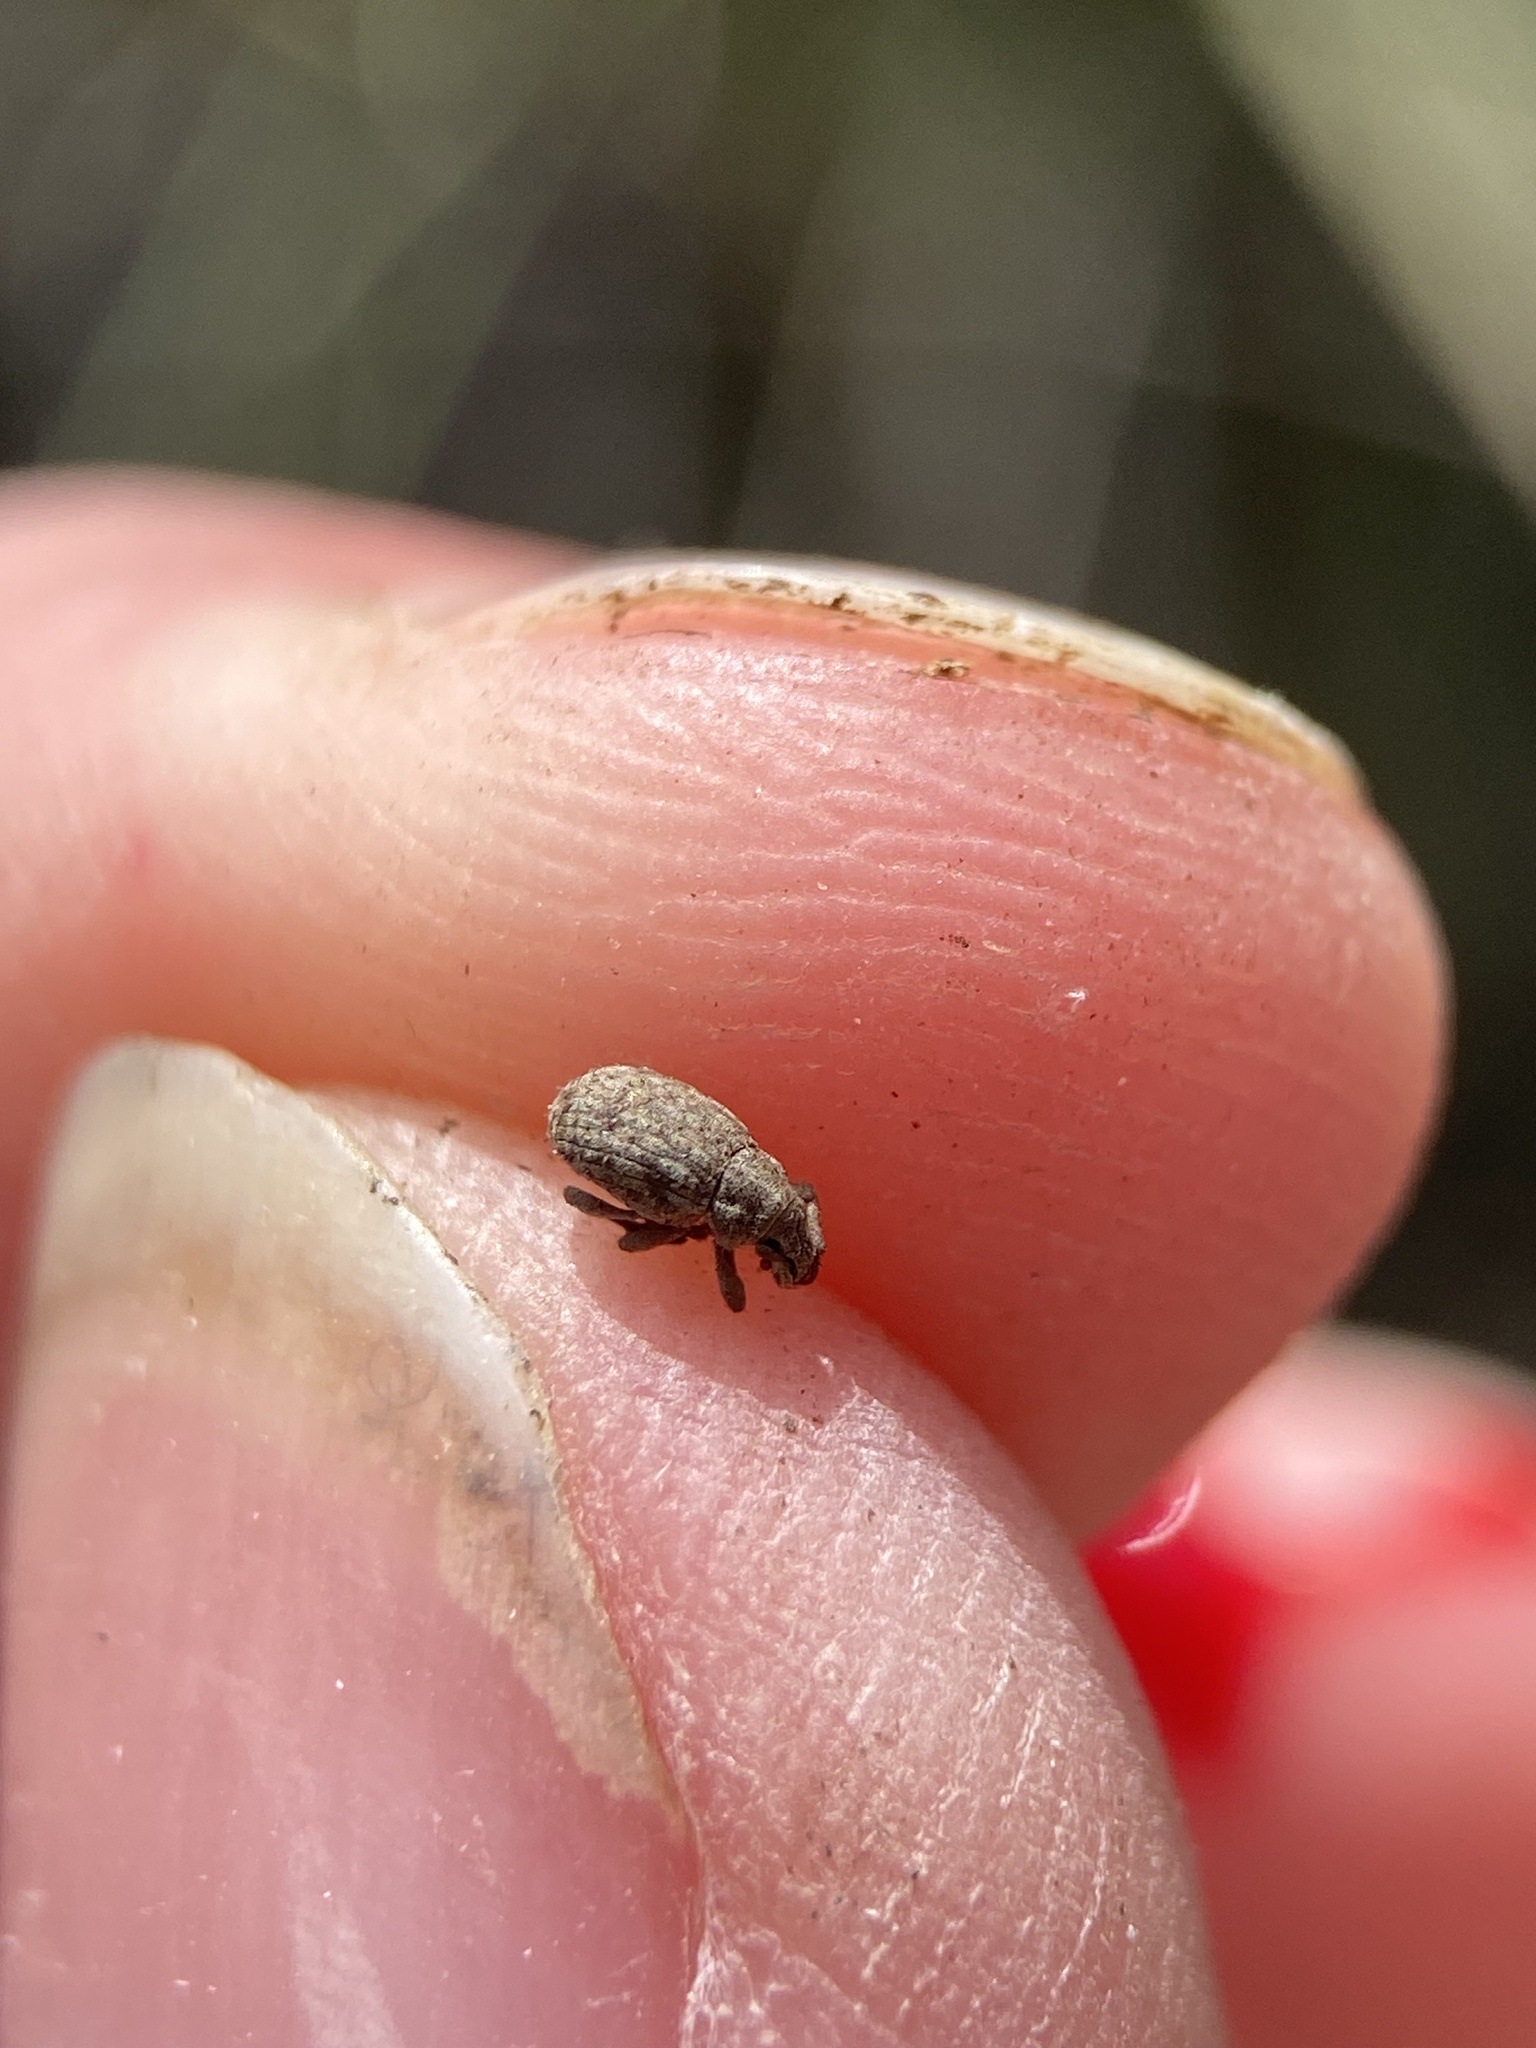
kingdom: Animalia
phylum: Arthropoda
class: Insecta
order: Coleoptera
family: Curculionidae
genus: Romualdius
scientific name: Romualdius scaber
